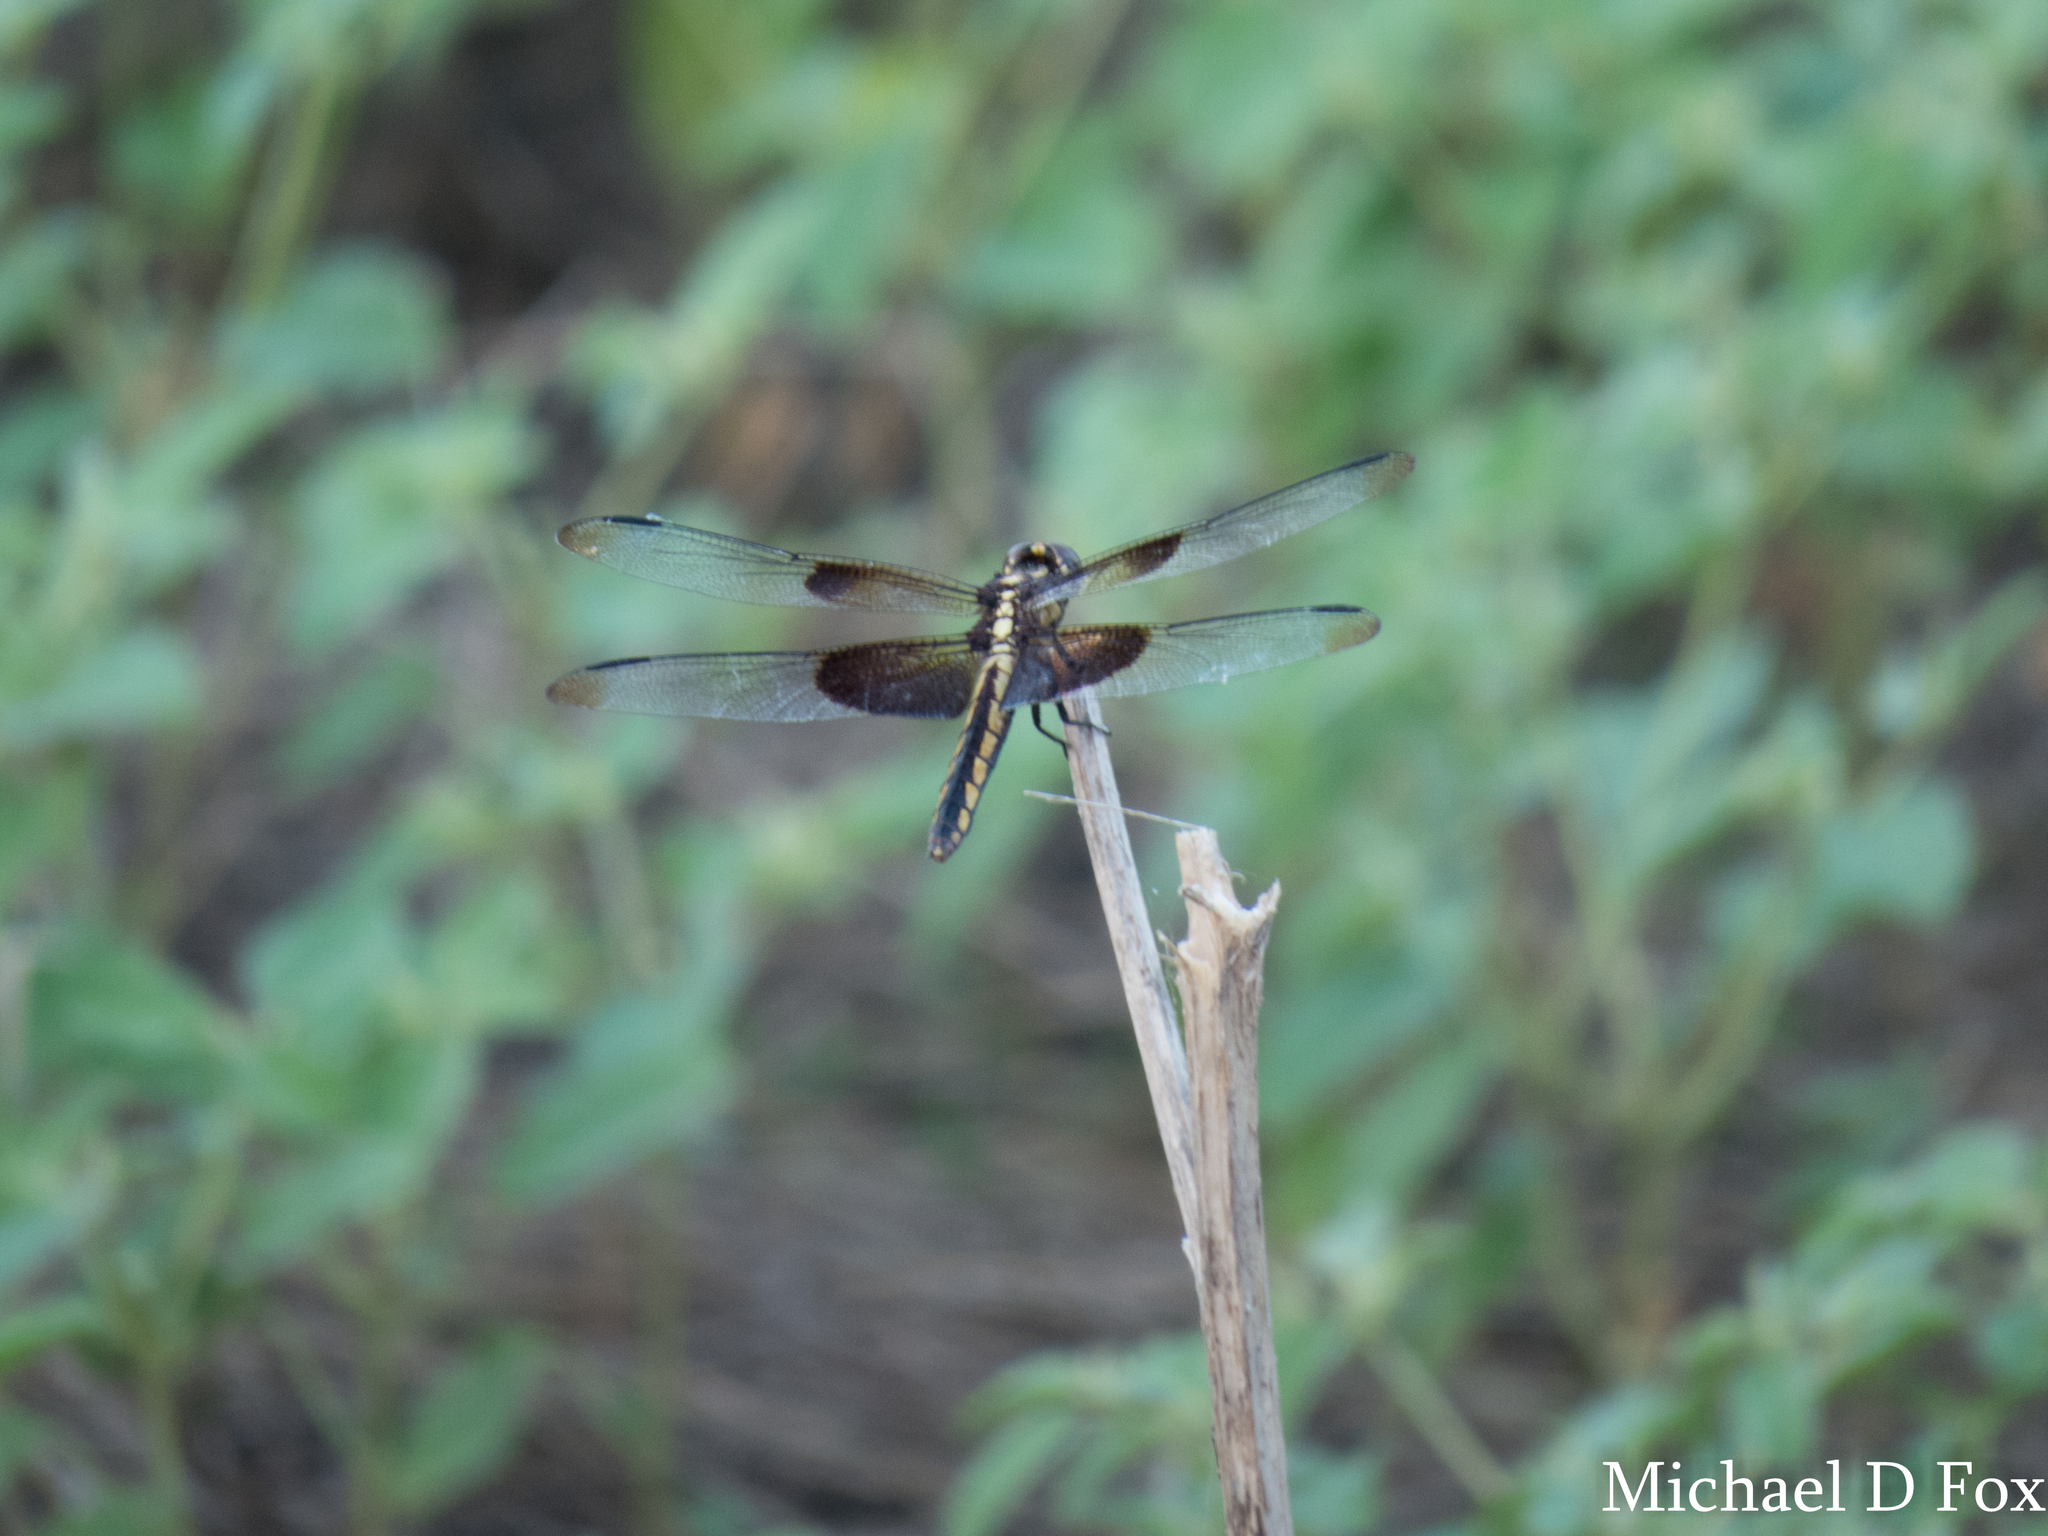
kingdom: Animalia
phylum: Arthropoda
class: Insecta
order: Odonata
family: Libellulidae
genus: Libellula
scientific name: Libellula luctuosa
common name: Widow skimmer
